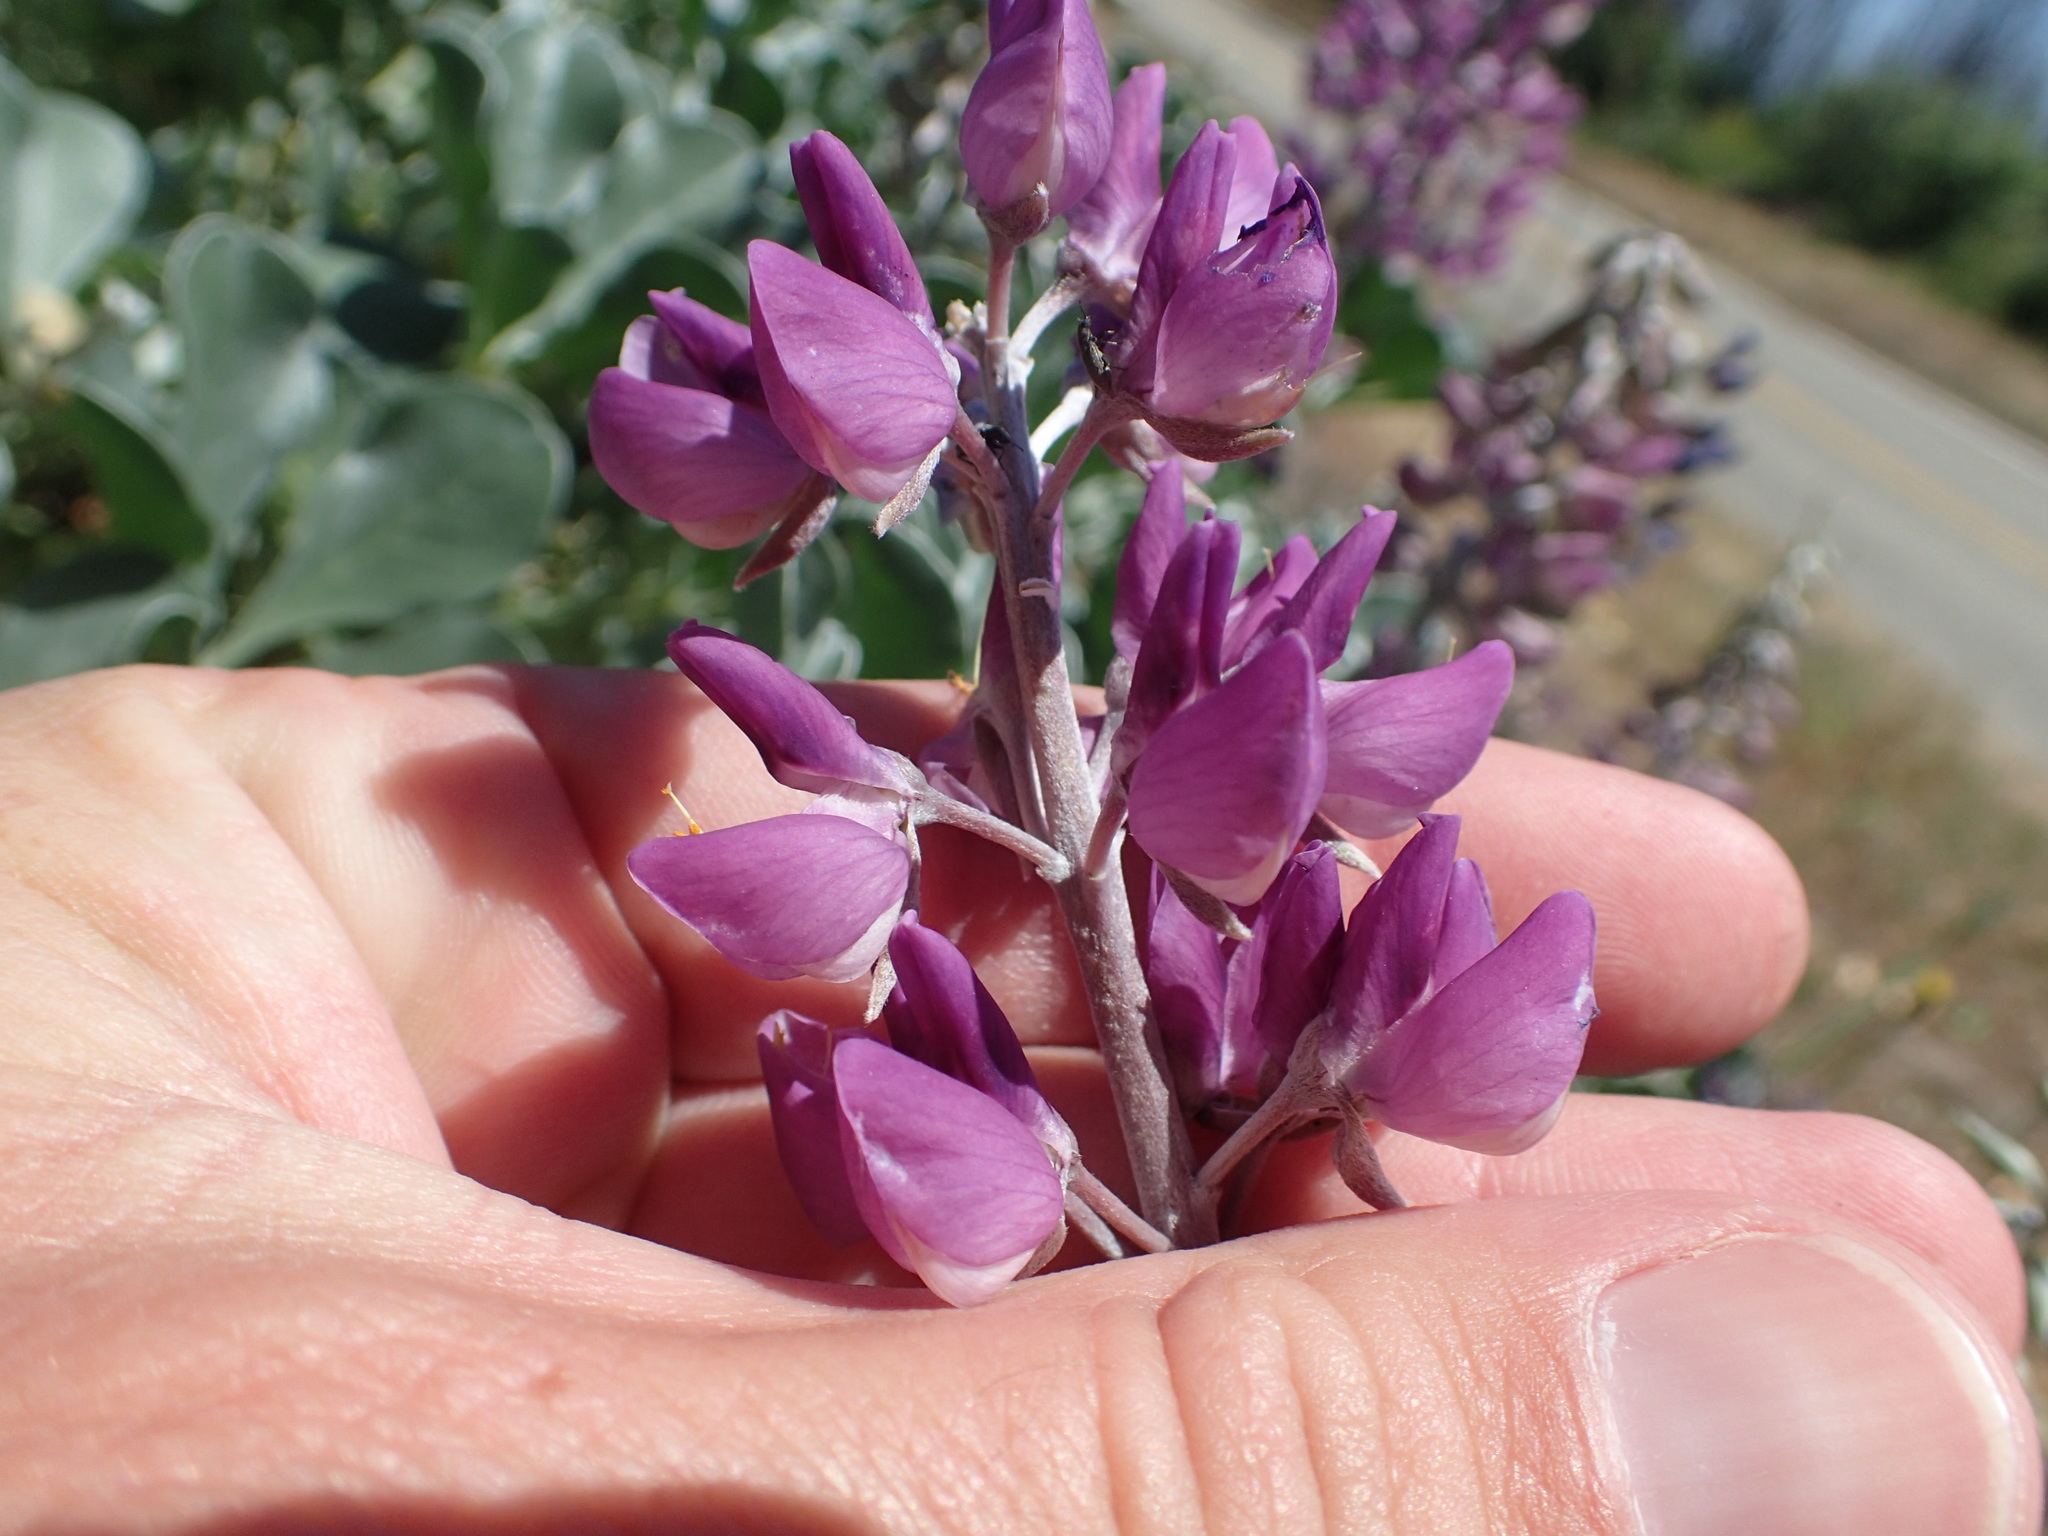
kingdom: Plantae
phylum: Tracheophyta
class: Magnoliopsida
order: Fabales
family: Fabaceae
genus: Lupinus
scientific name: Lupinus sericatus
